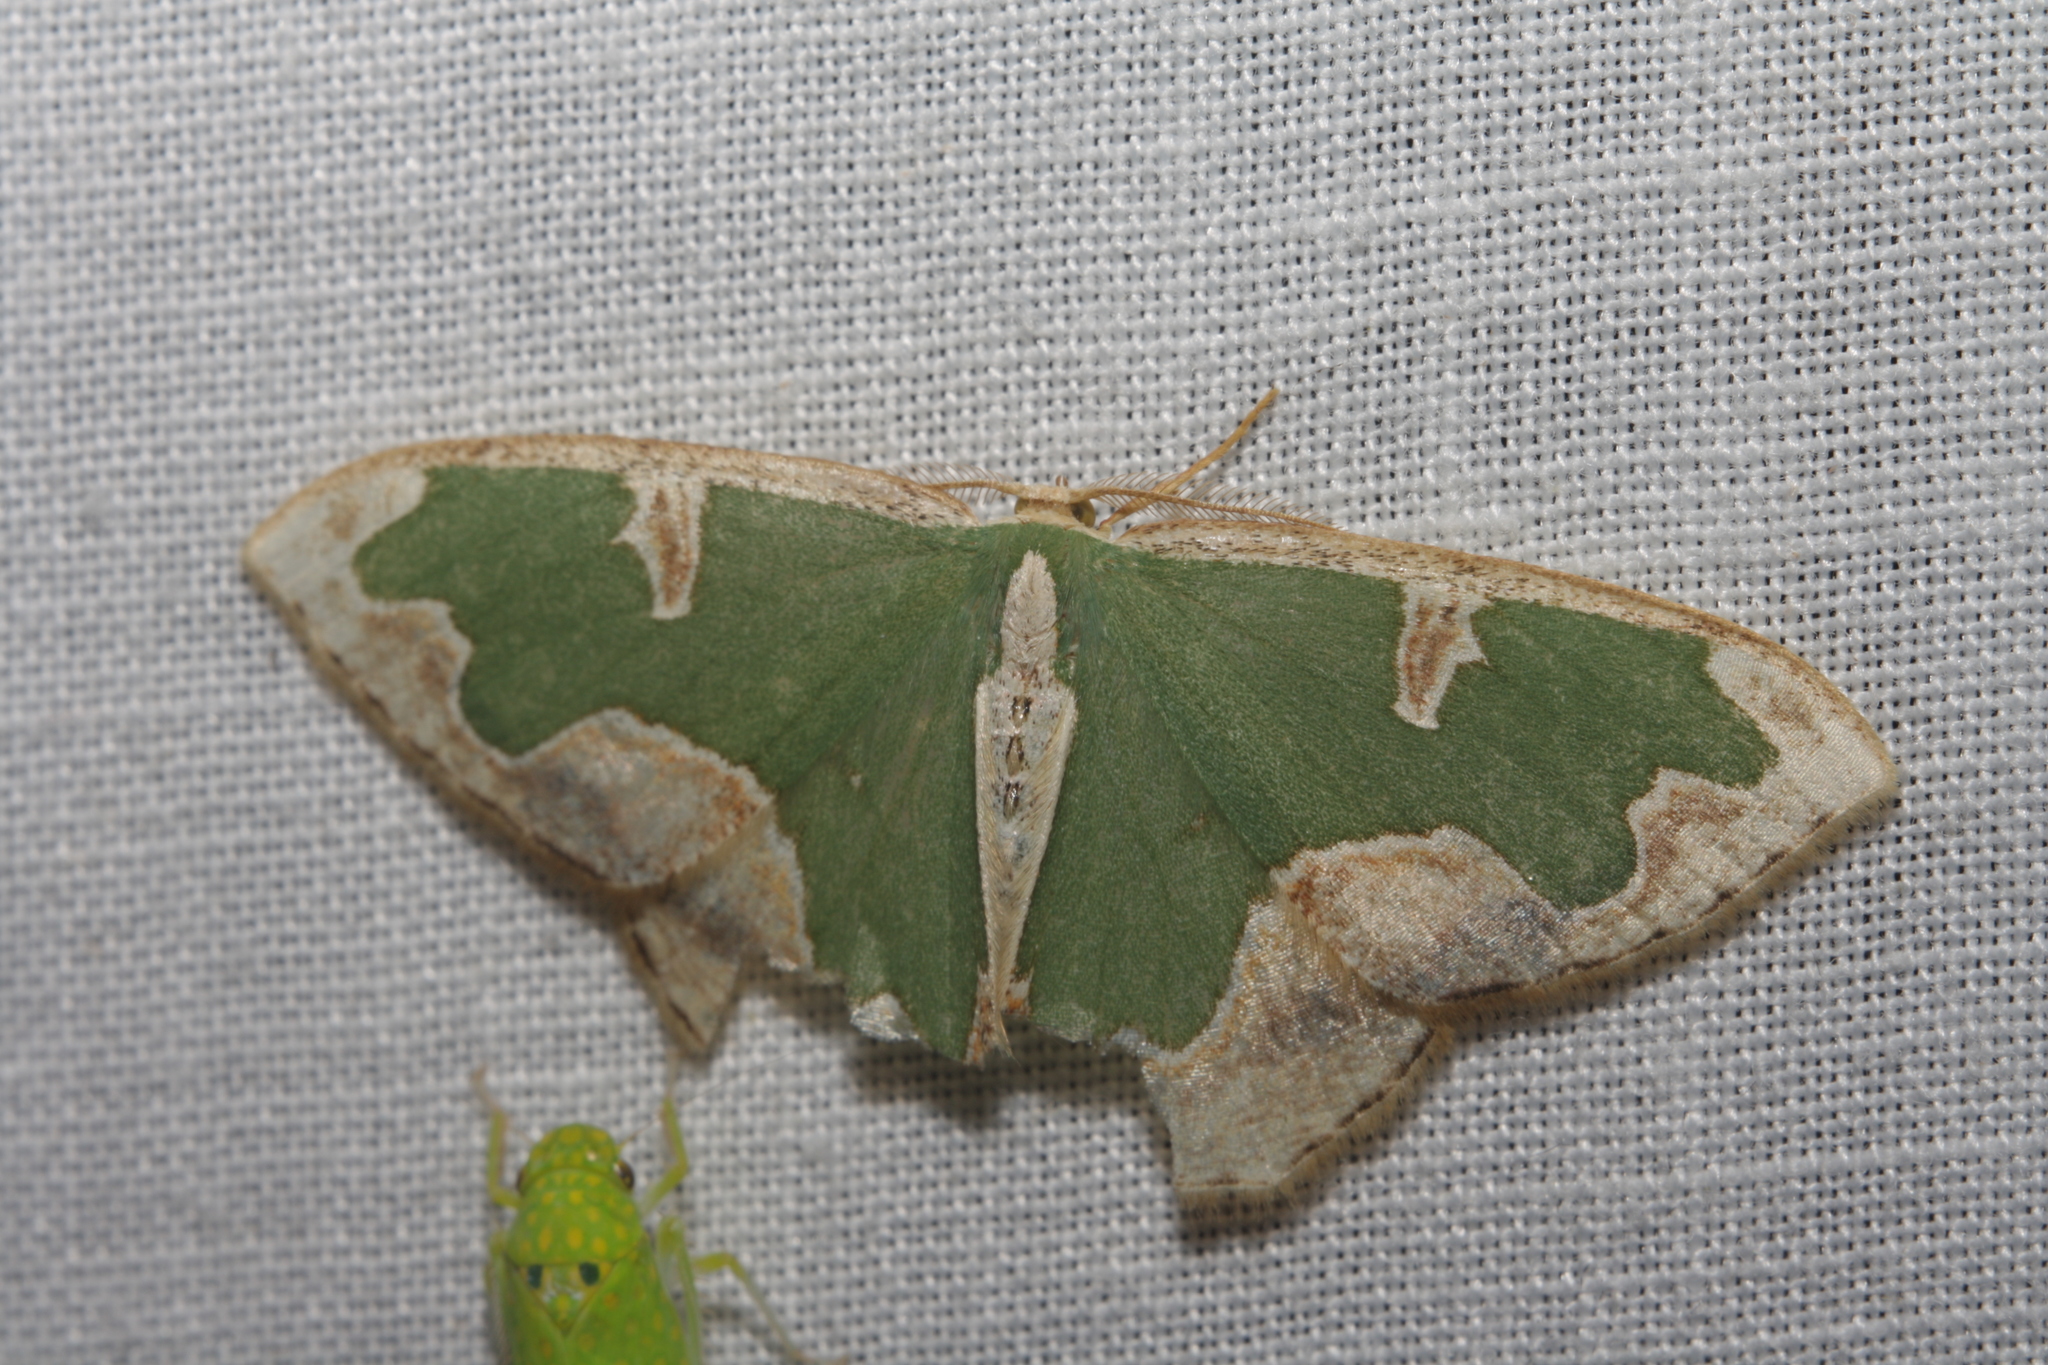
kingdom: Animalia
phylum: Arthropoda
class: Insecta
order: Lepidoptera
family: Geometridae
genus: Oospila
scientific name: Oospila venezuelata
